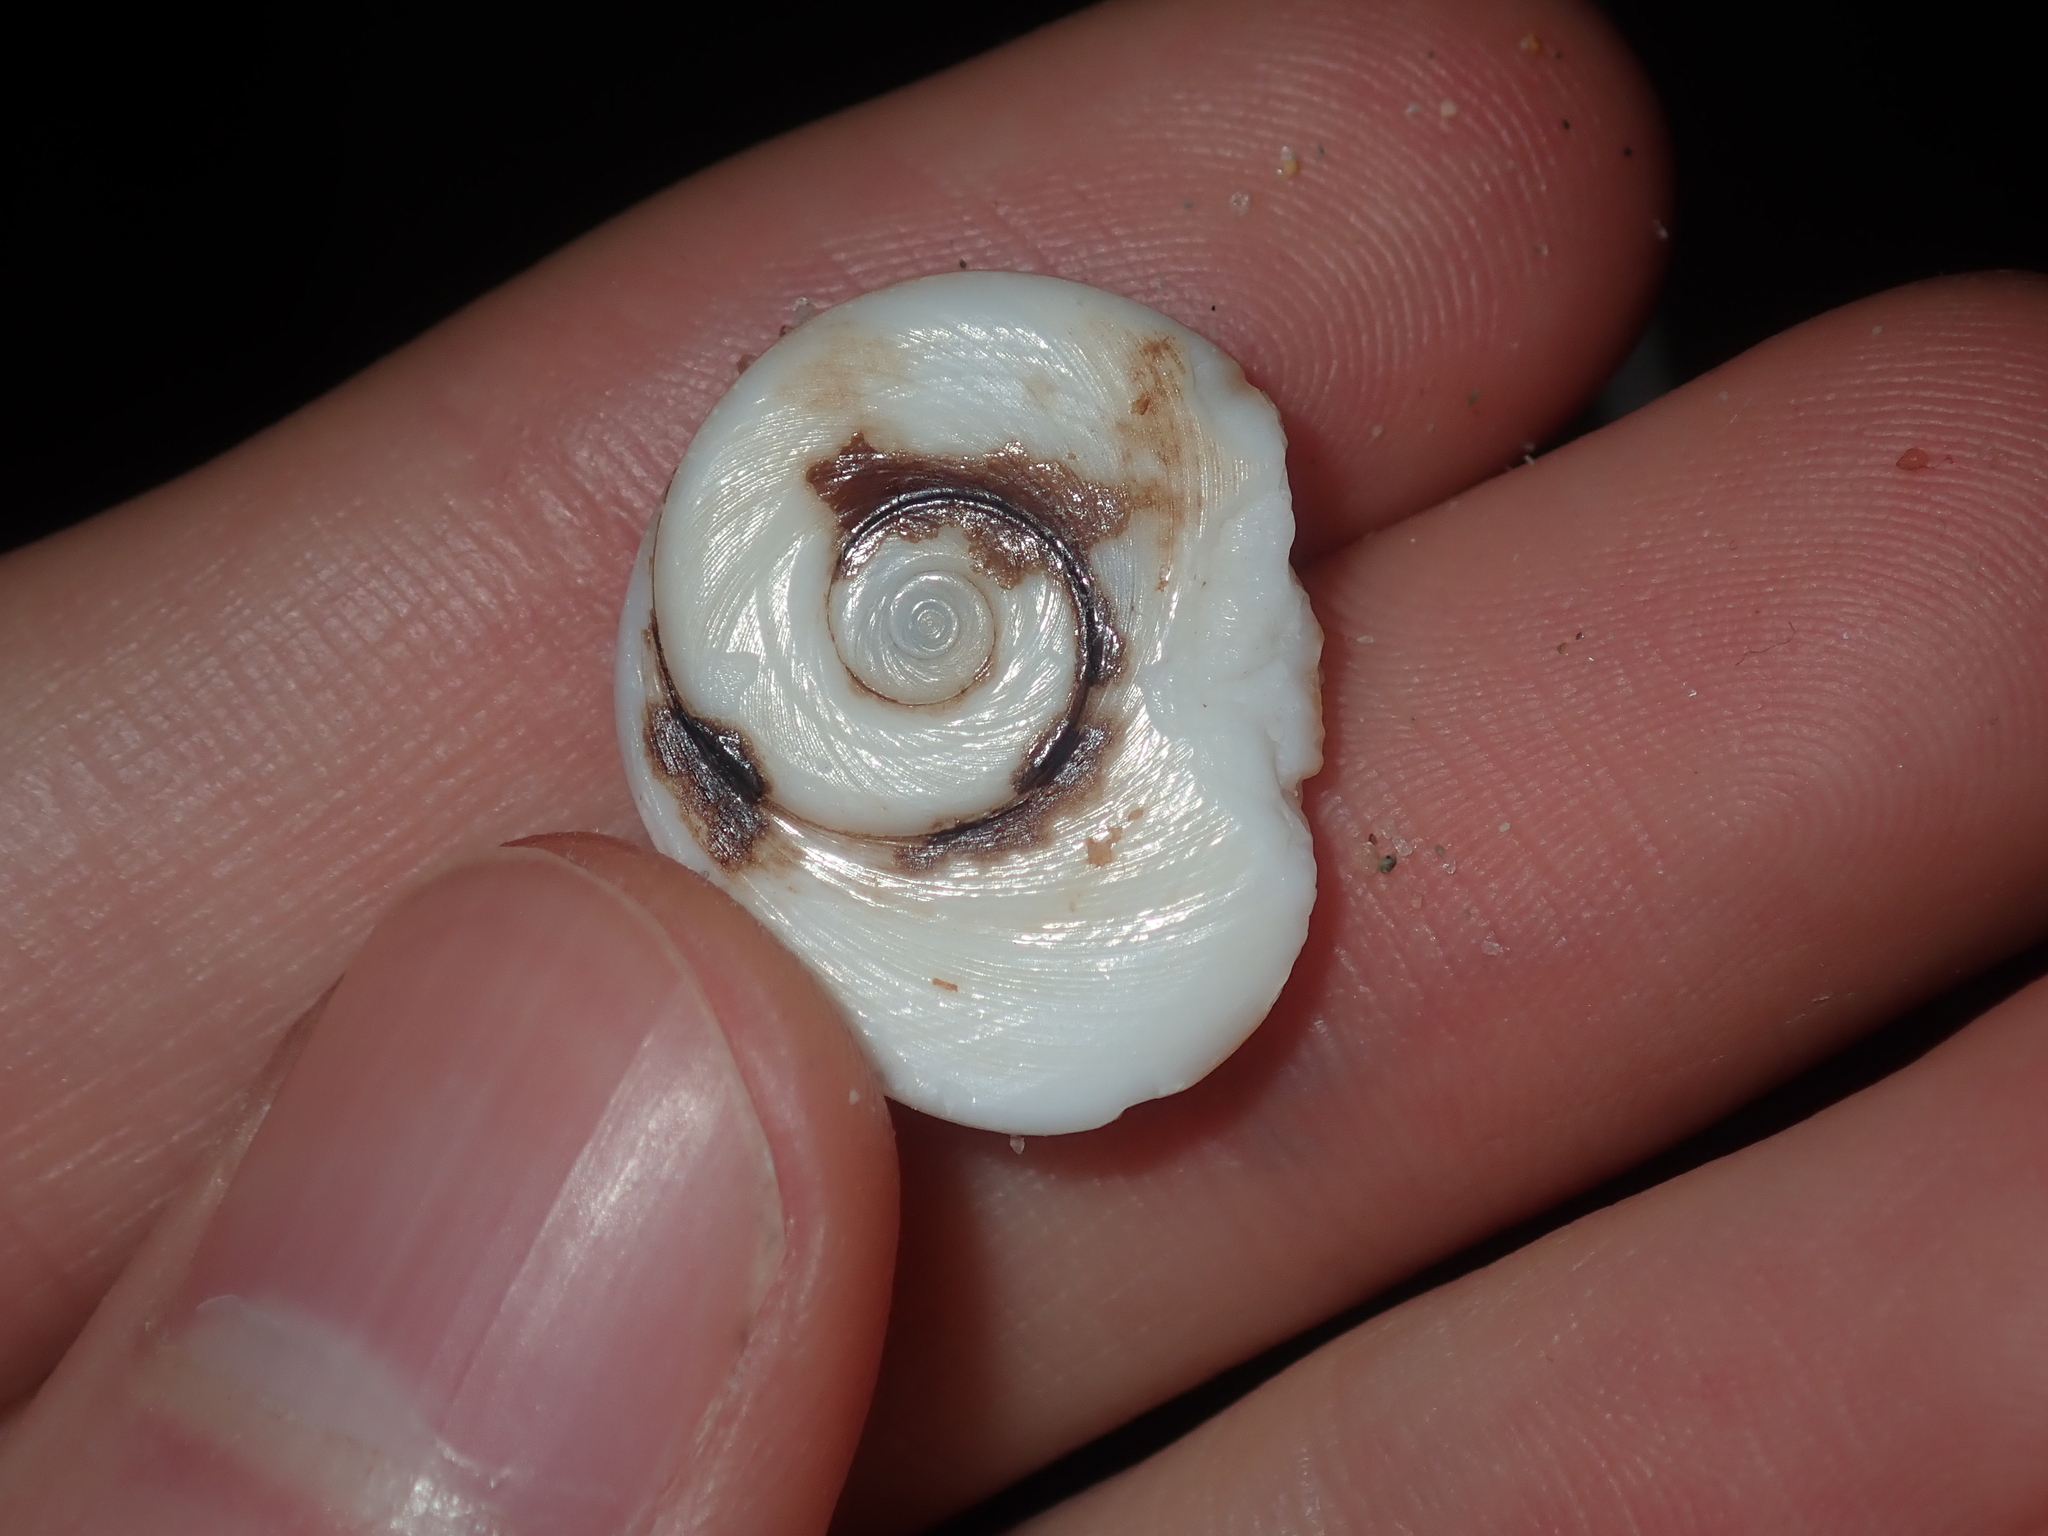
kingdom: Animalia
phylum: Mollusca
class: Gastropoda
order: Trochida
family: Turbinidae
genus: Turbo
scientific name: Turbo kenwilliamsi
